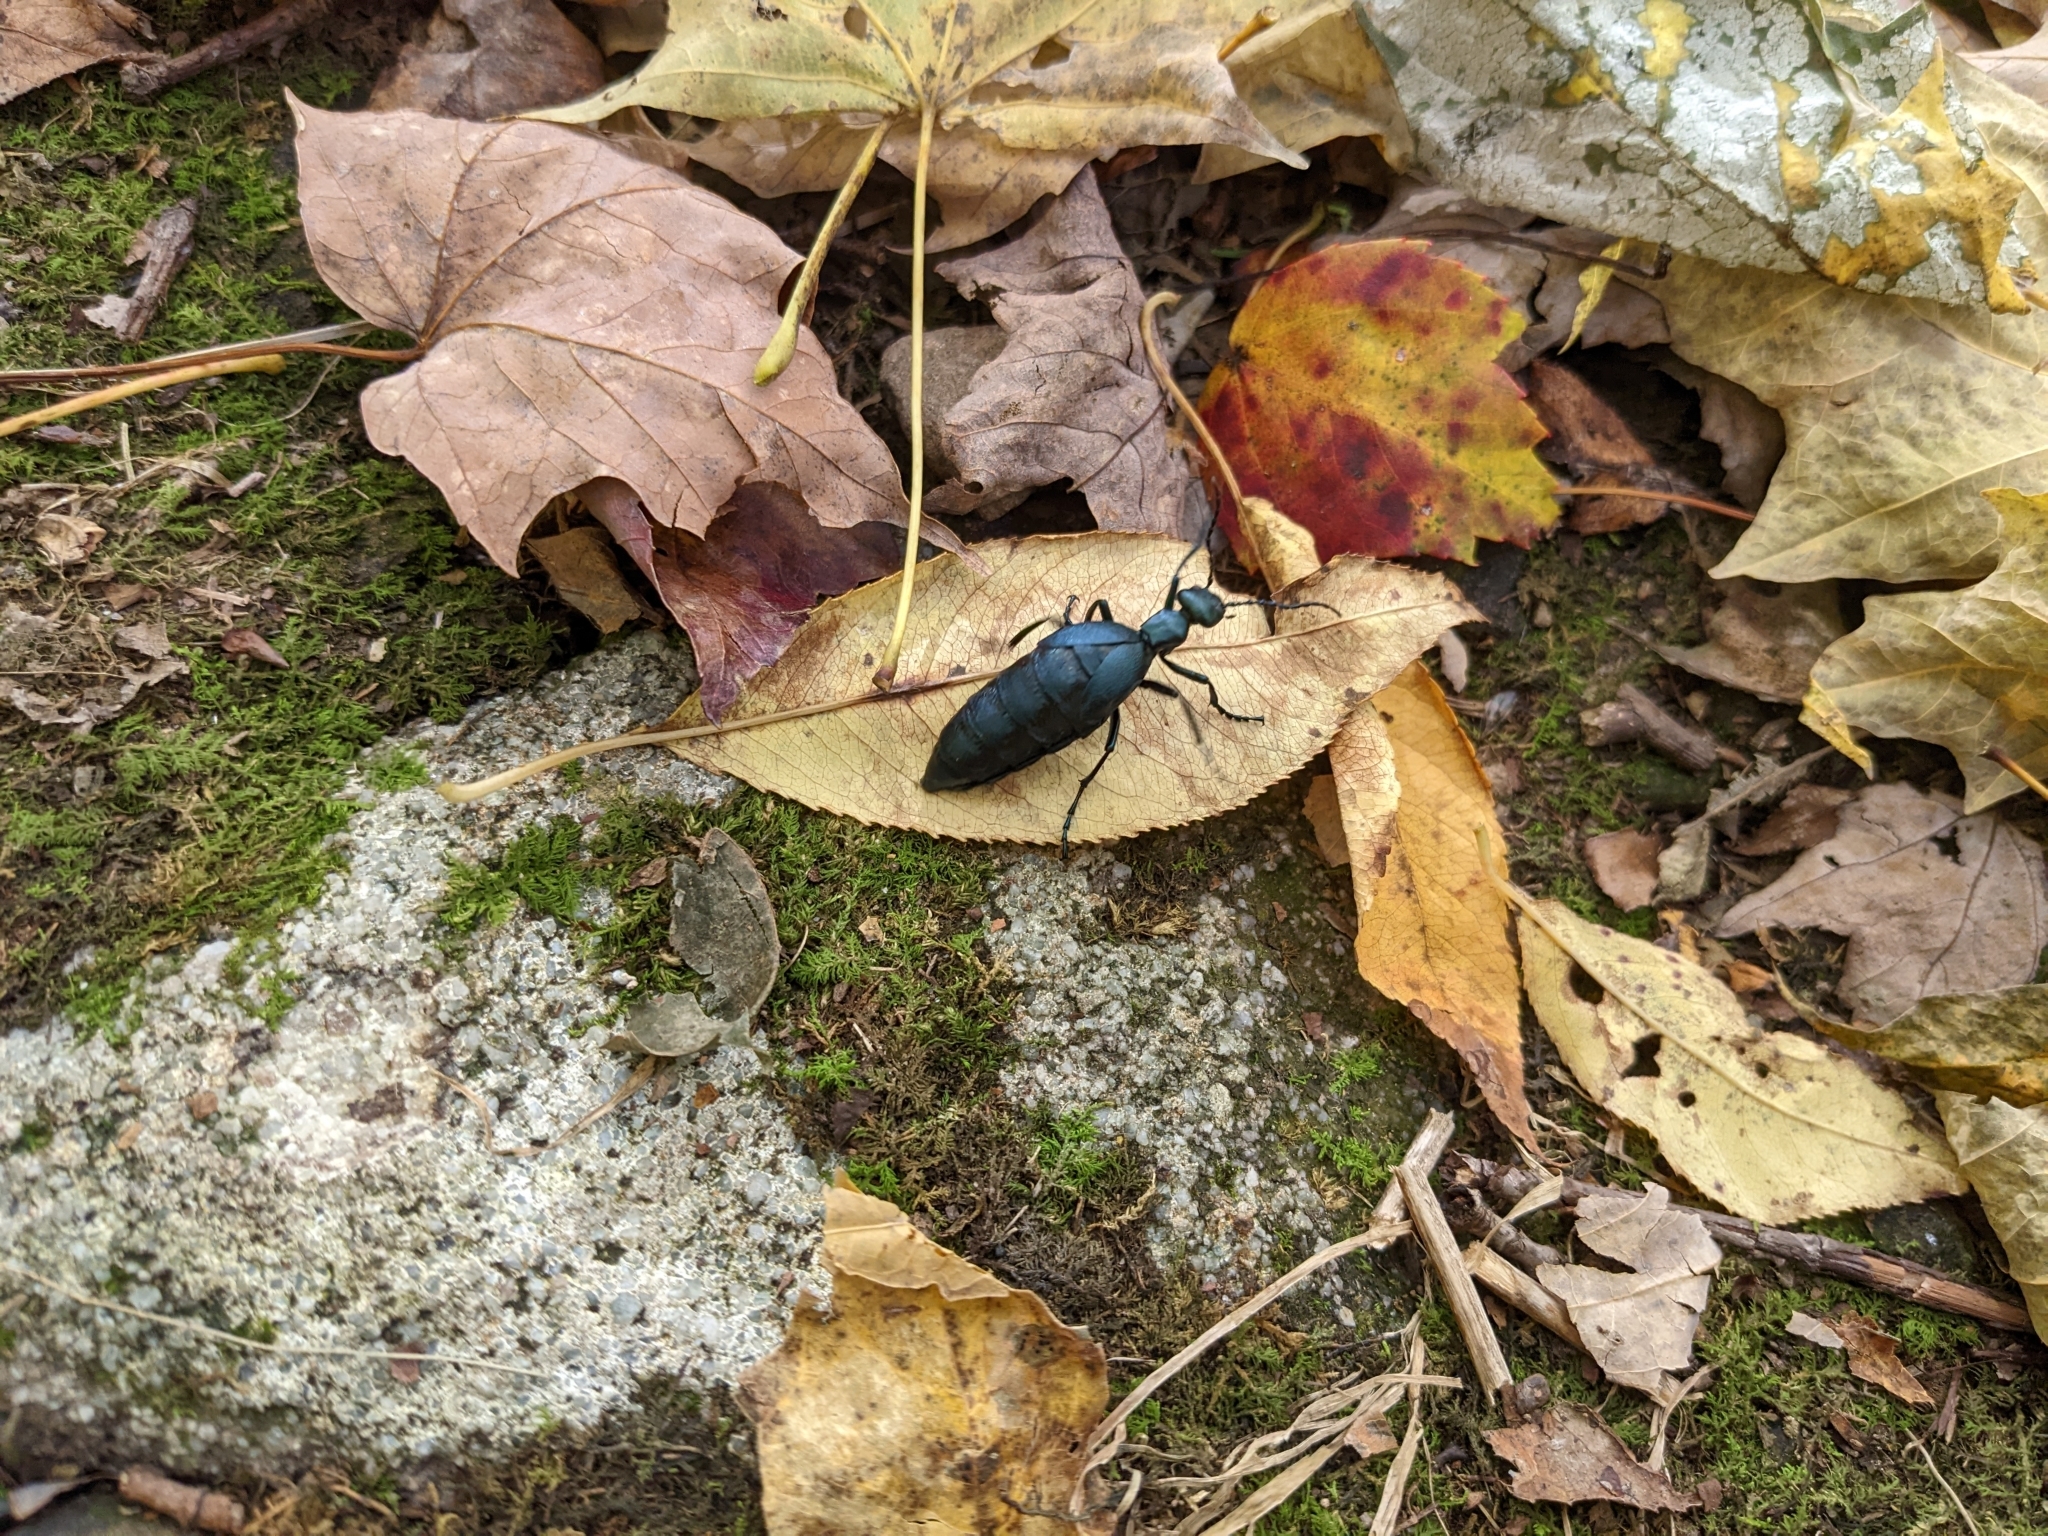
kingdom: Animalia
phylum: Arthropoda
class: Insecta
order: Coleoptera
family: Meloidae
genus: Meloe
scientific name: Meloe impressus
